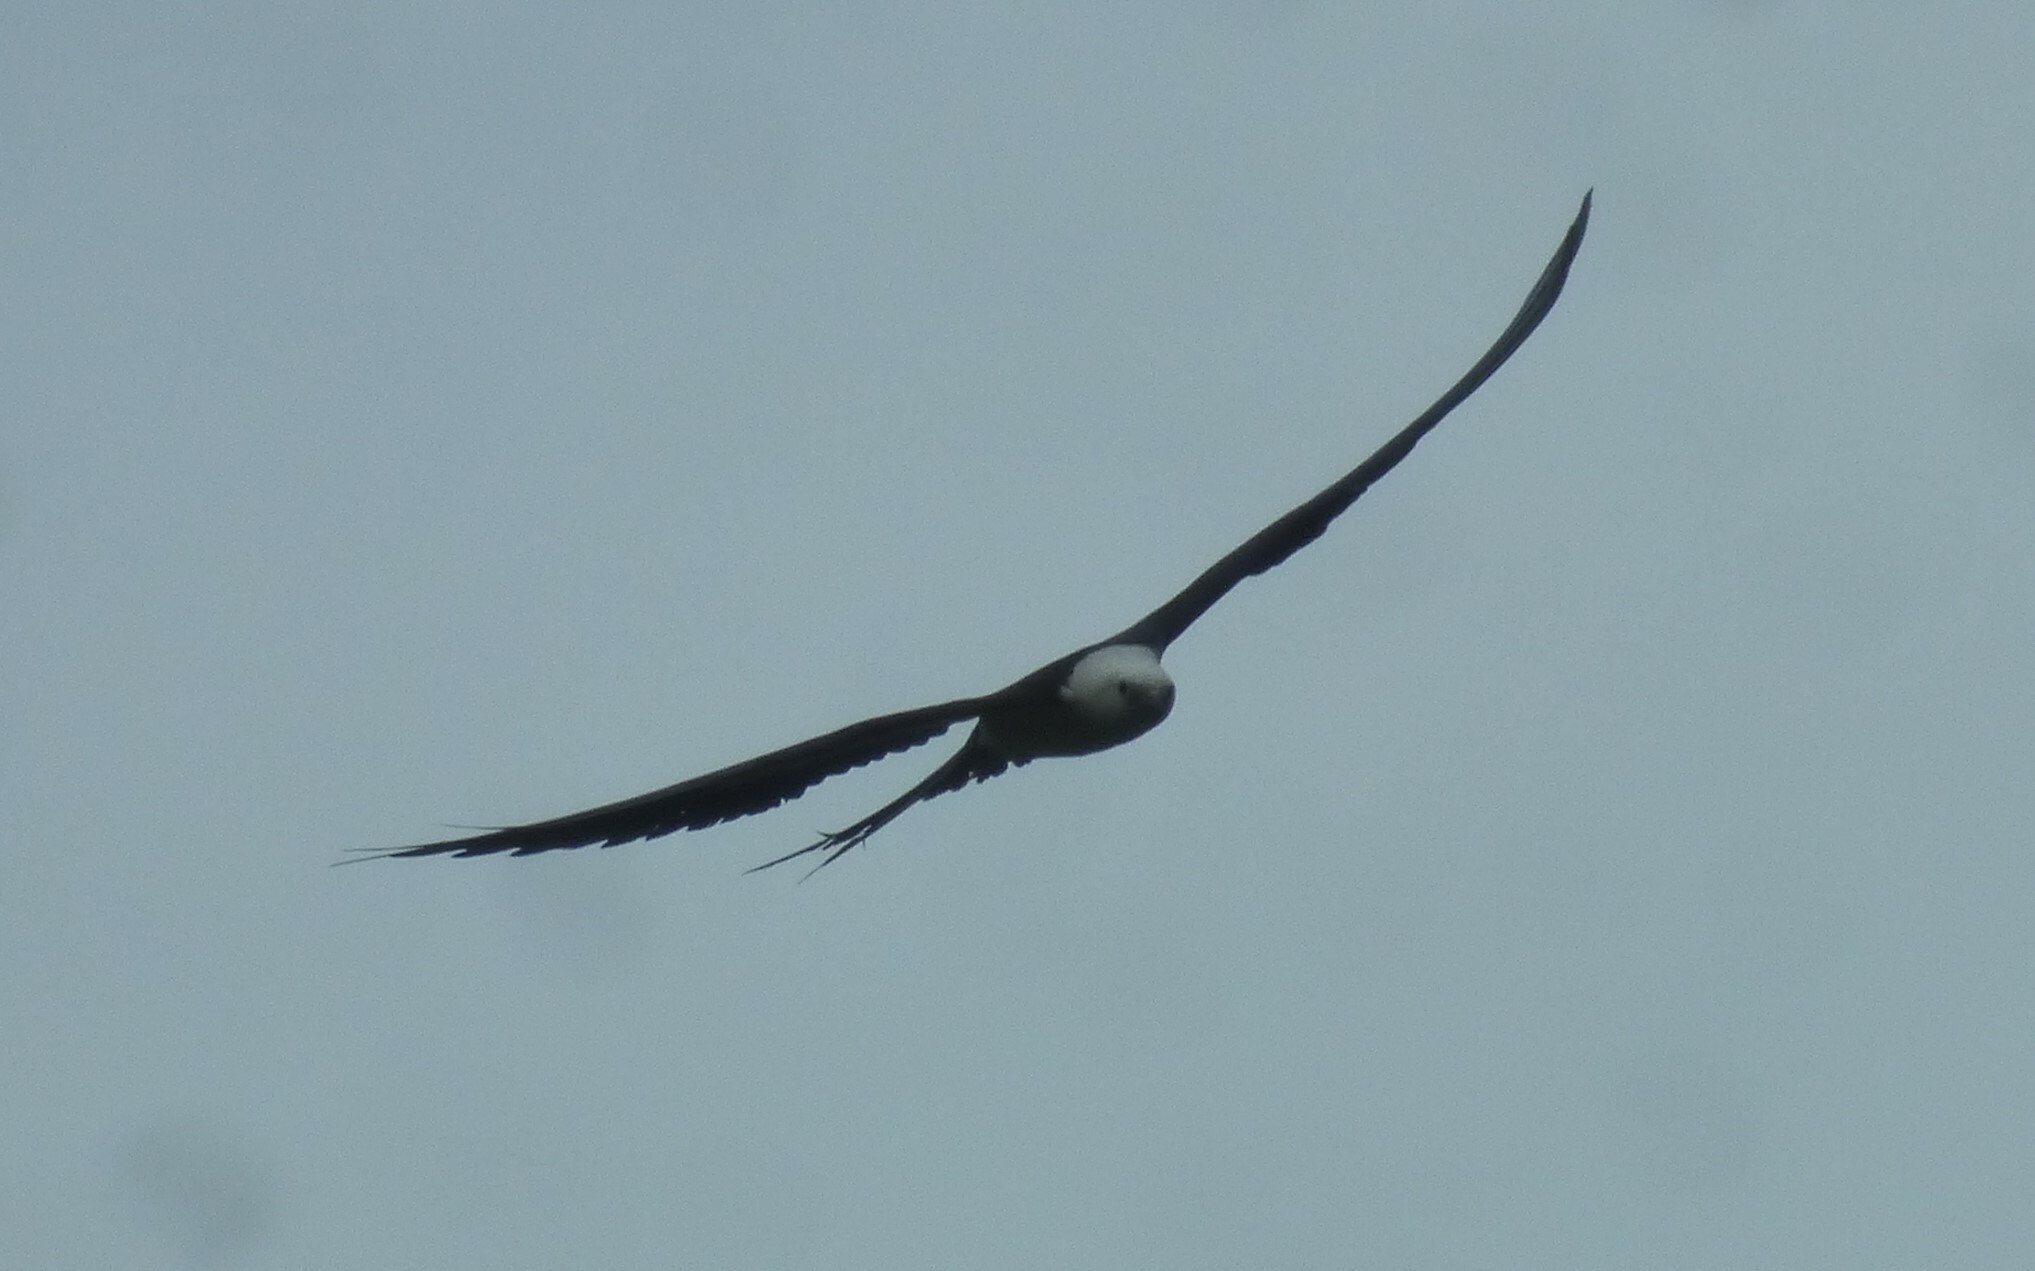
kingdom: Animalia
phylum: Chordata
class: Aves
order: Accipitriformes
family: Accipitridae
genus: Elanoides
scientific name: Elanoides forficatus
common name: Swallow-tailed kite
